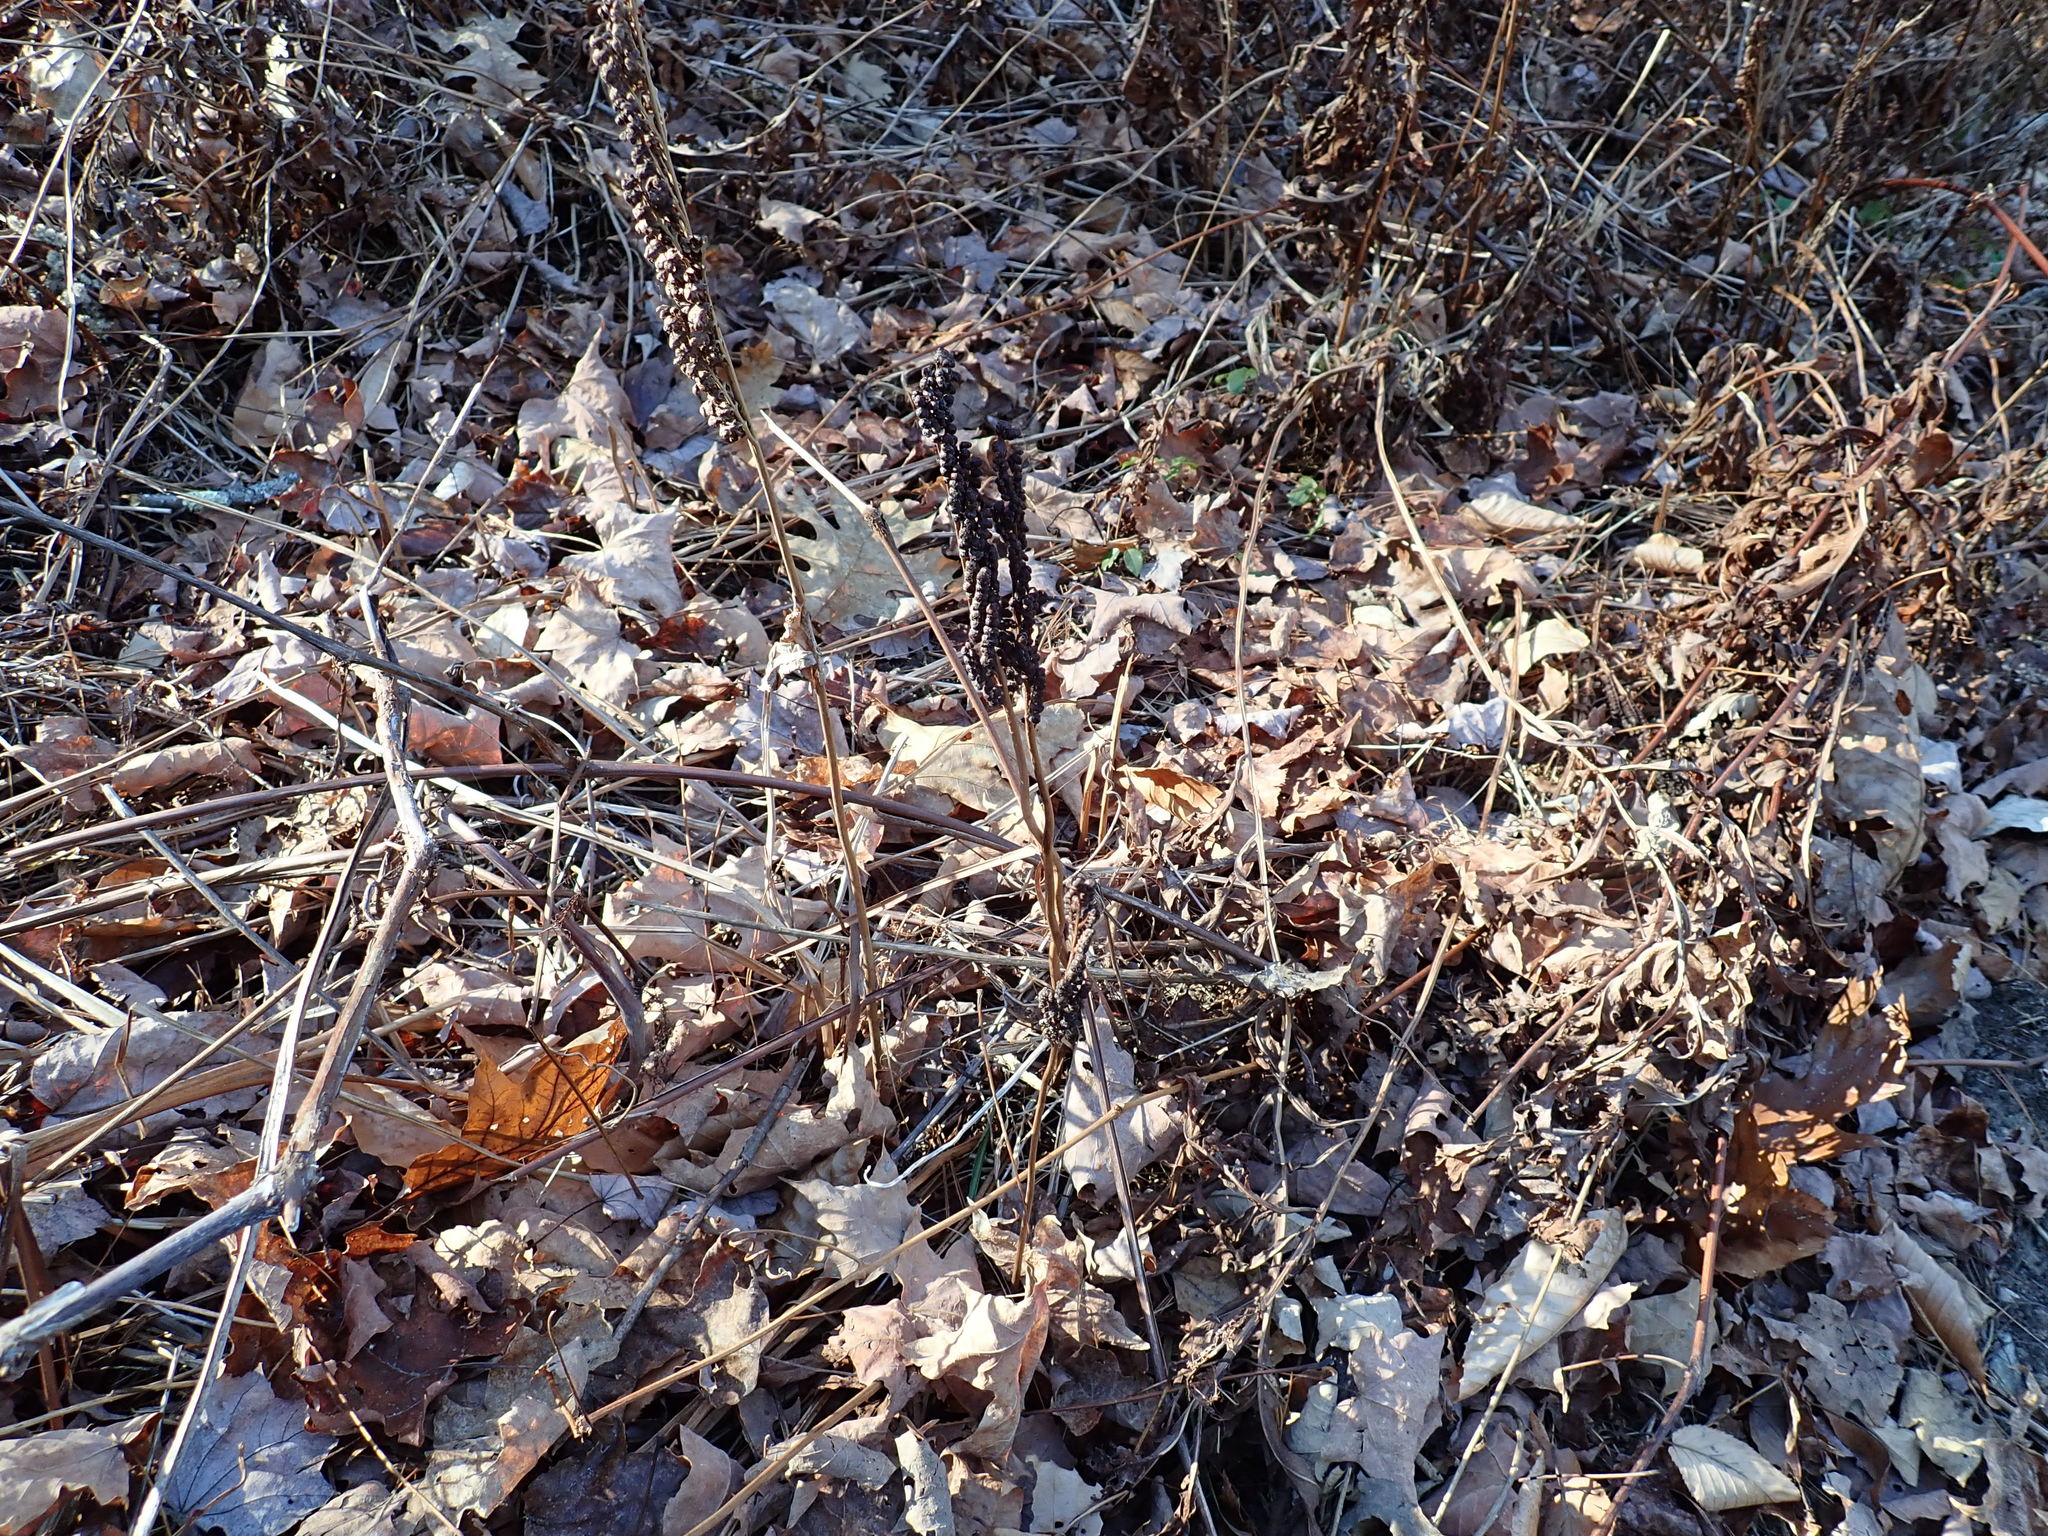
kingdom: Plantae
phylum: Tracheophyta
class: Polypodiopsida
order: Polypodiales
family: Onocleaceae
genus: Onoclea
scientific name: Onoclea sensibilis
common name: Sensitive fern
